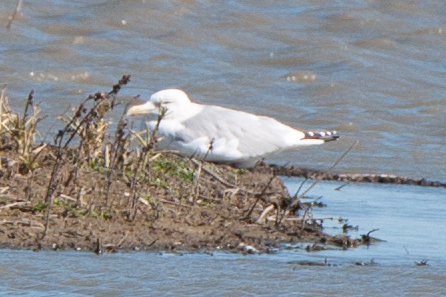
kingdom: Animalia
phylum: Chordata
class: Aves
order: Charadriiformes
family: Laridae
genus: Larus
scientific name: Larus argentatus
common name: Herring gull
